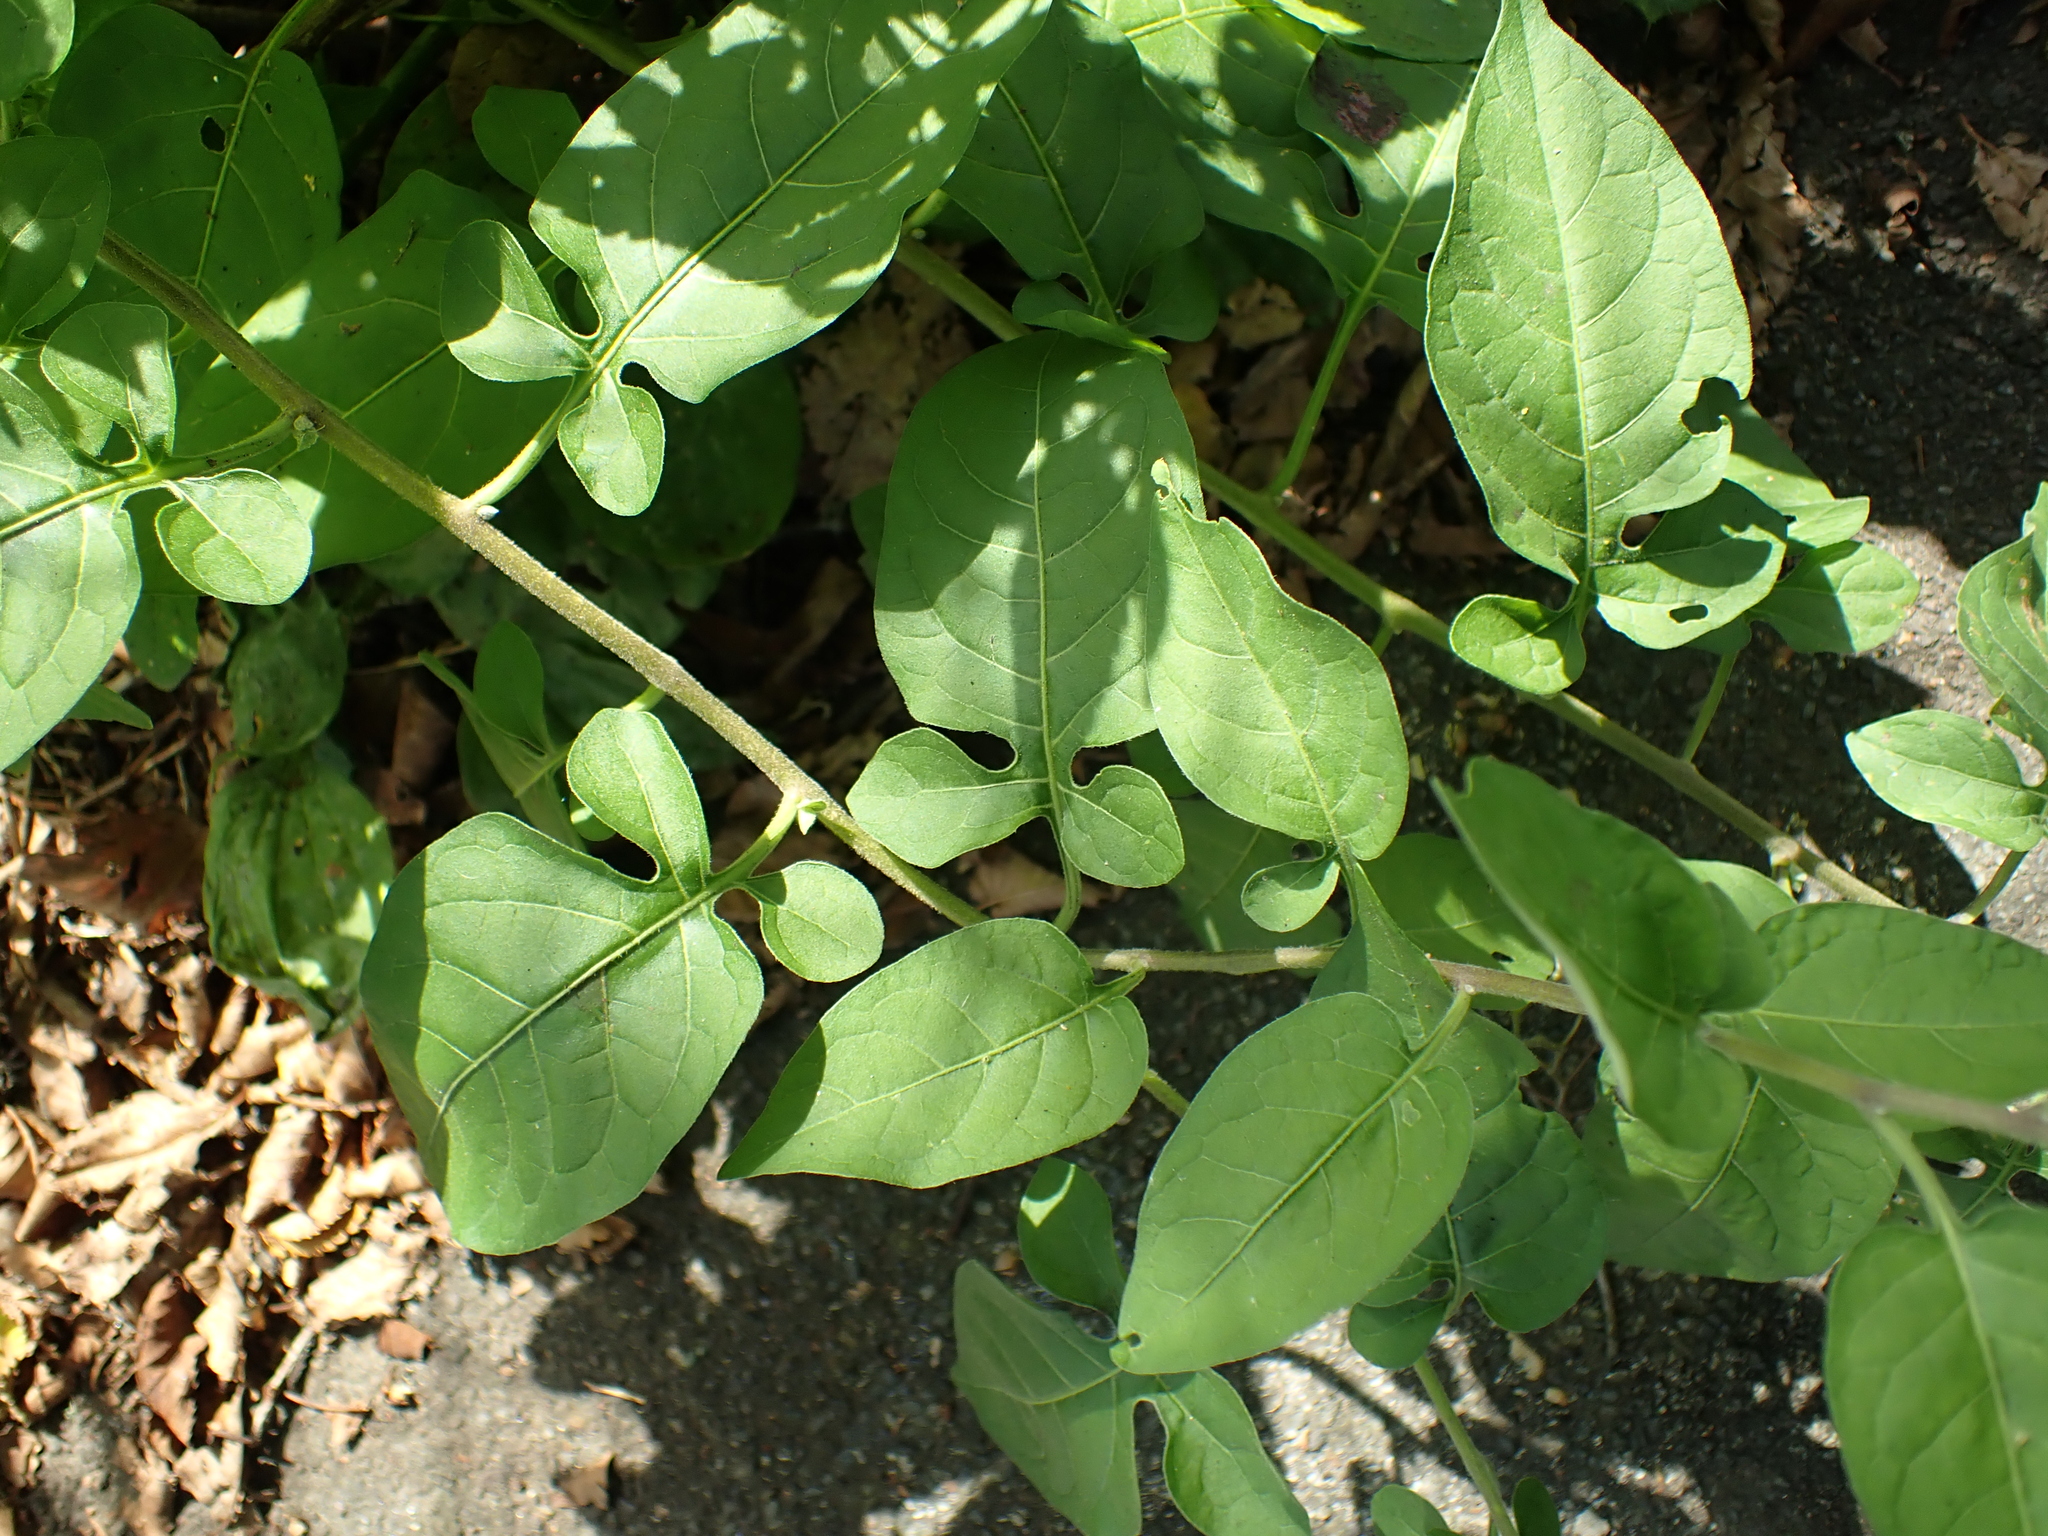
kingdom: Plantae
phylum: Tracheophyta
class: Magnoliopsida
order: Solanales
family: Solanaceae
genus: Solanum
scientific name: Solanum dulcamara
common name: Climbing nightshade
